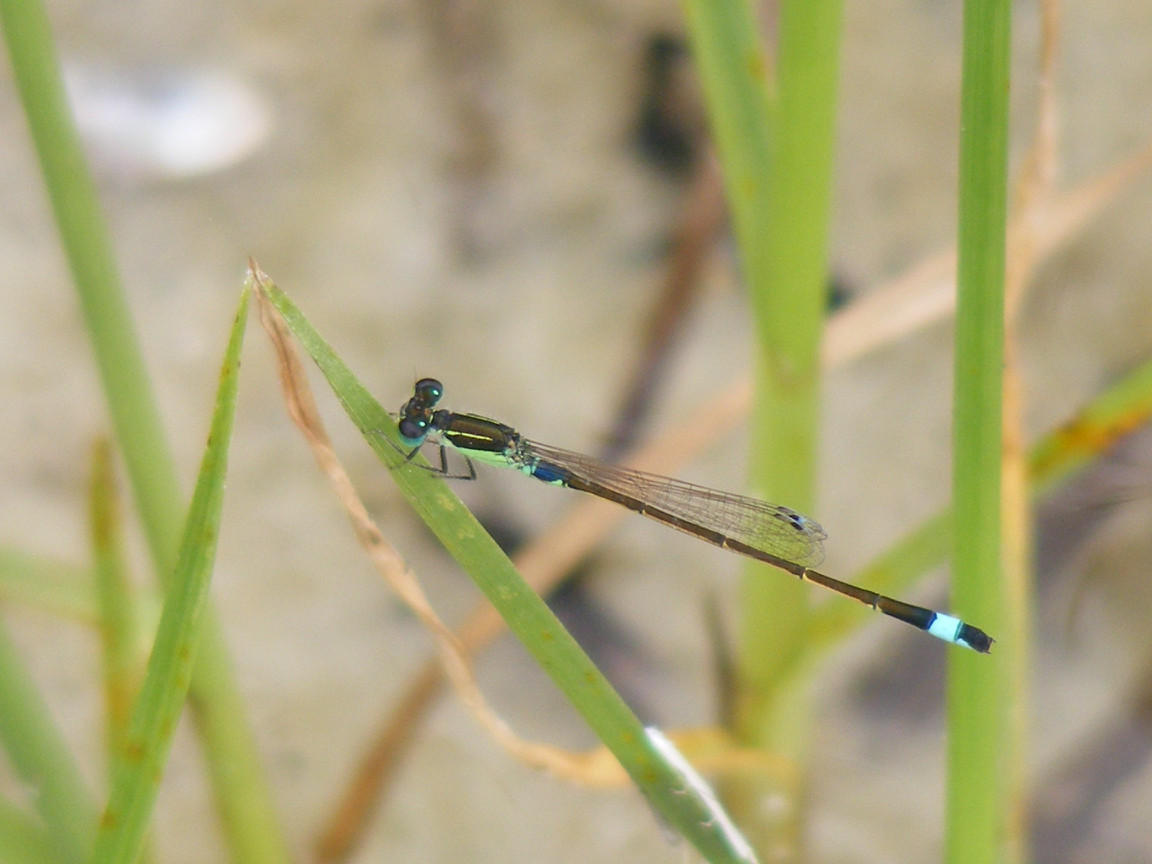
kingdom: Animalia
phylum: Arthropoda
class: Insecta
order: Odonata
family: Coenagrionidae
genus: Ischnura
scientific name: Ischnura senegalensis
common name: Tropical bluetail
